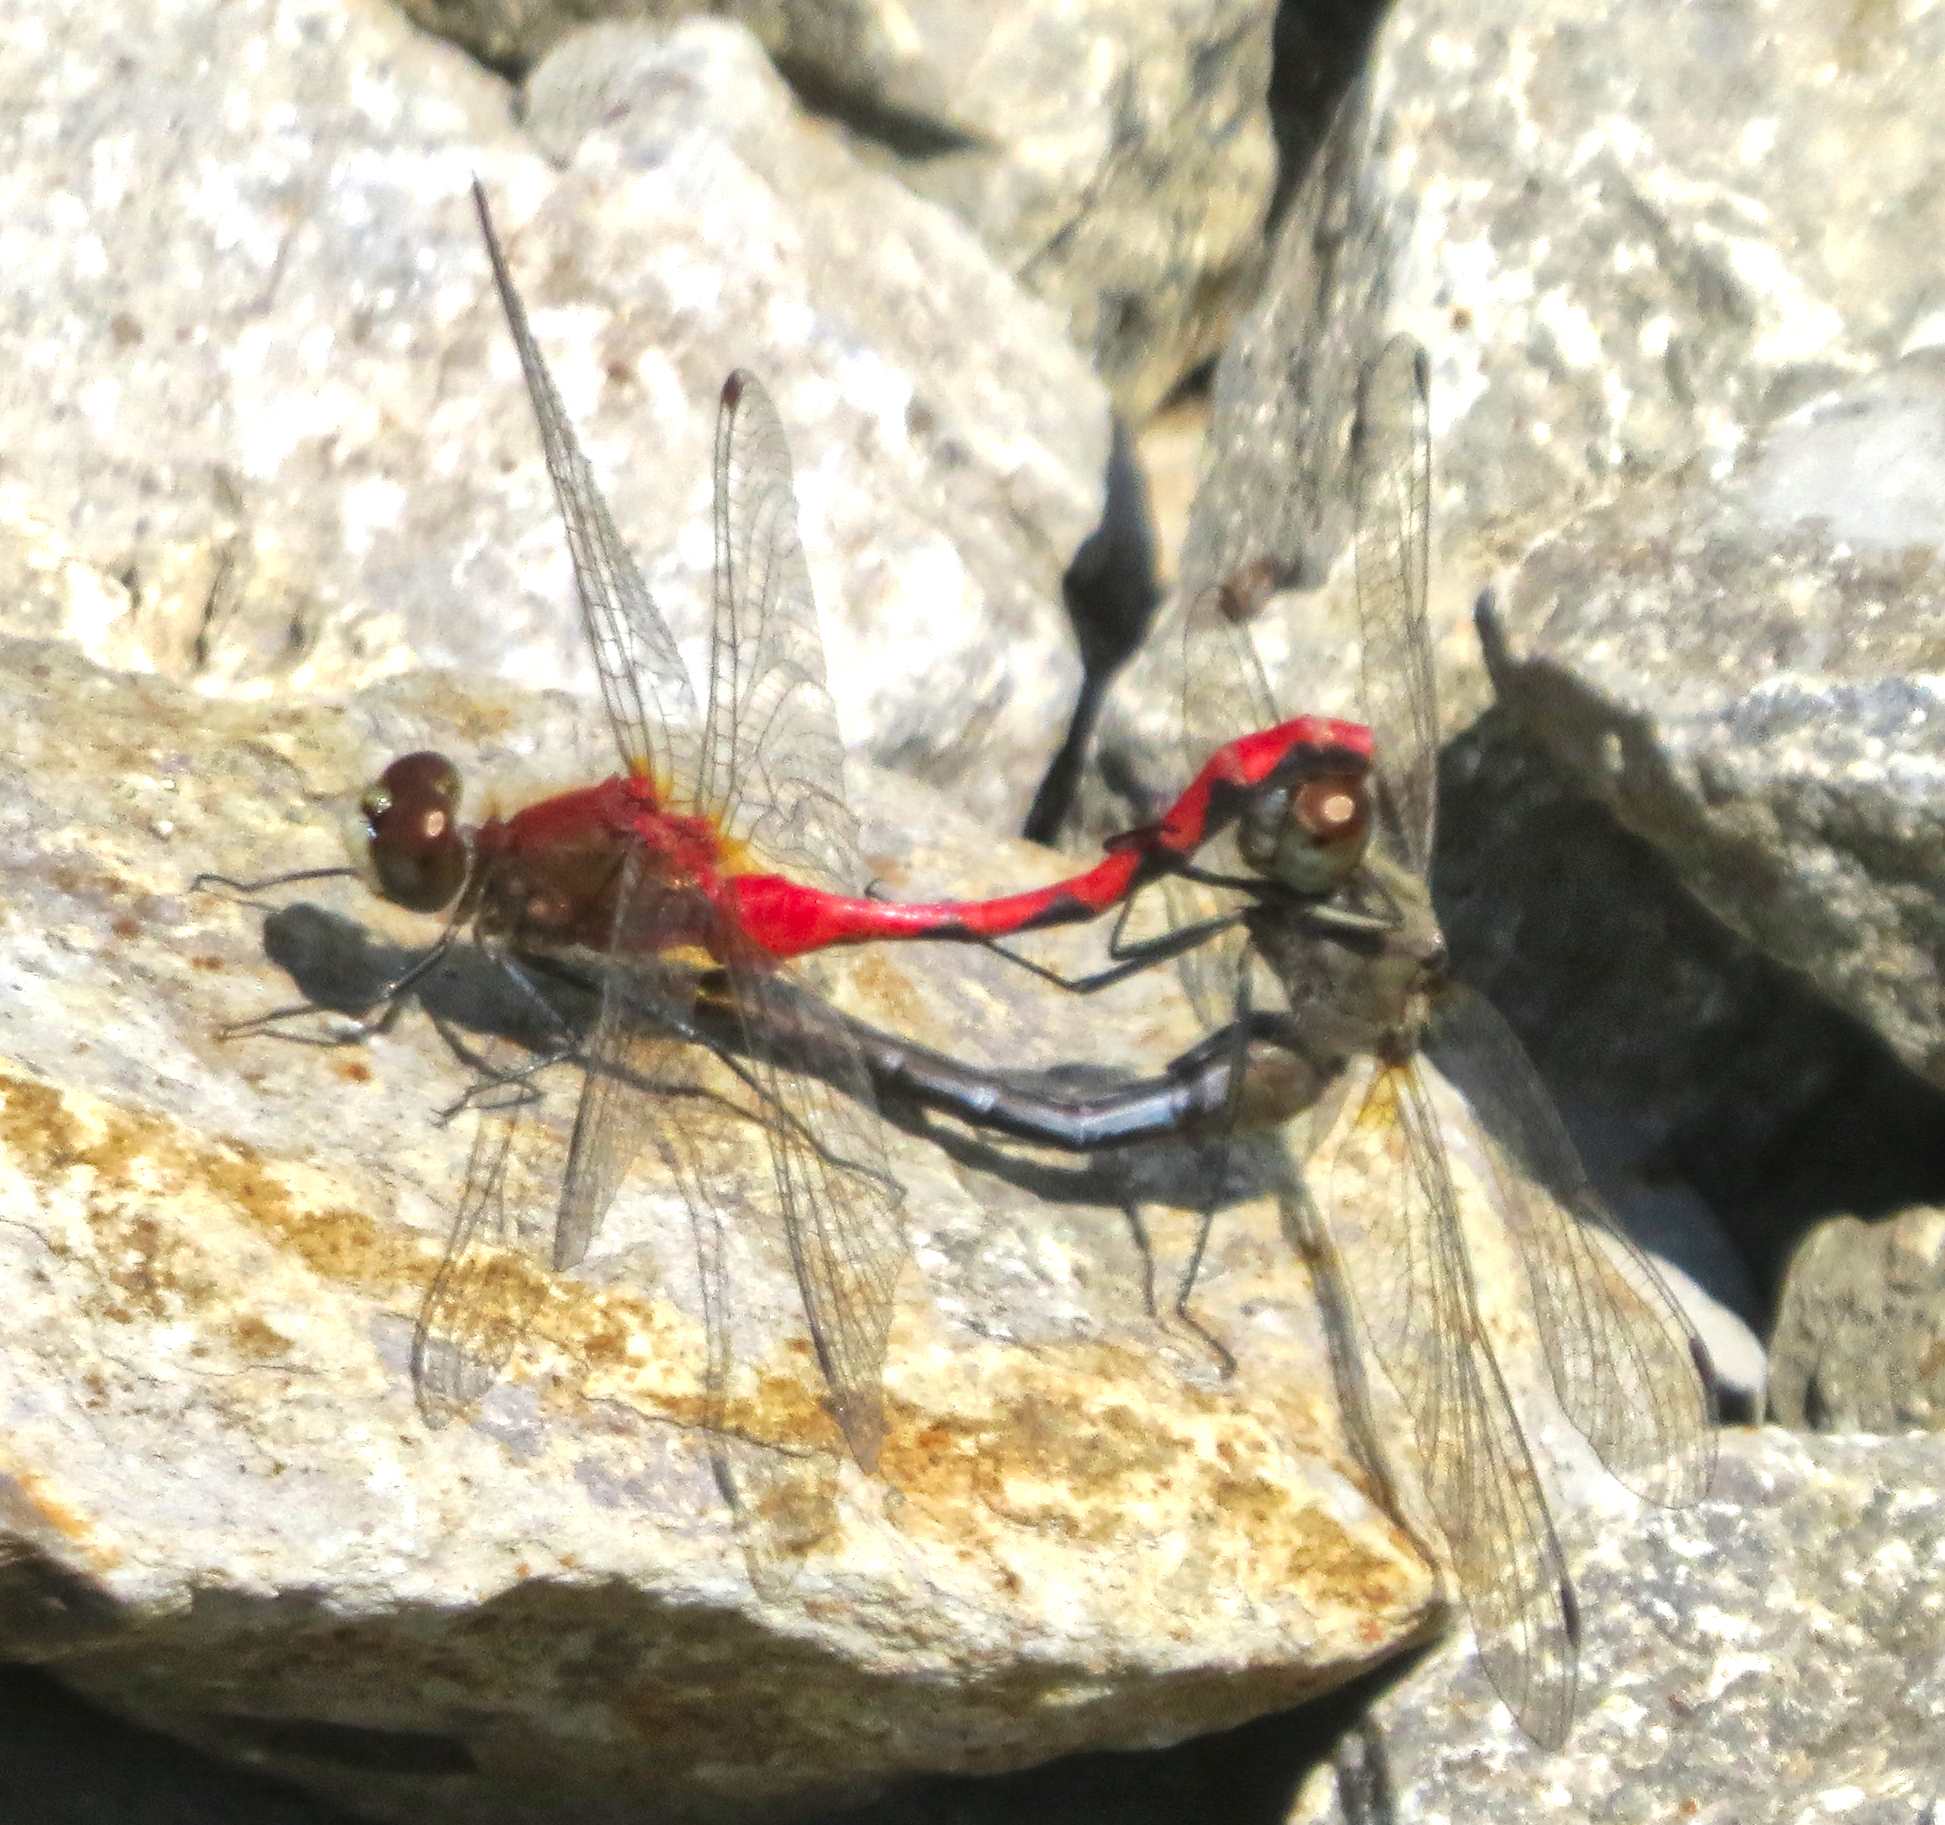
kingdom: Animalia
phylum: Arthropoda
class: Insecta
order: Odonata
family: Libellulidae
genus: Sympetrum
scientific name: Sympetrum obtrusum
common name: White-faced meadowhawk
